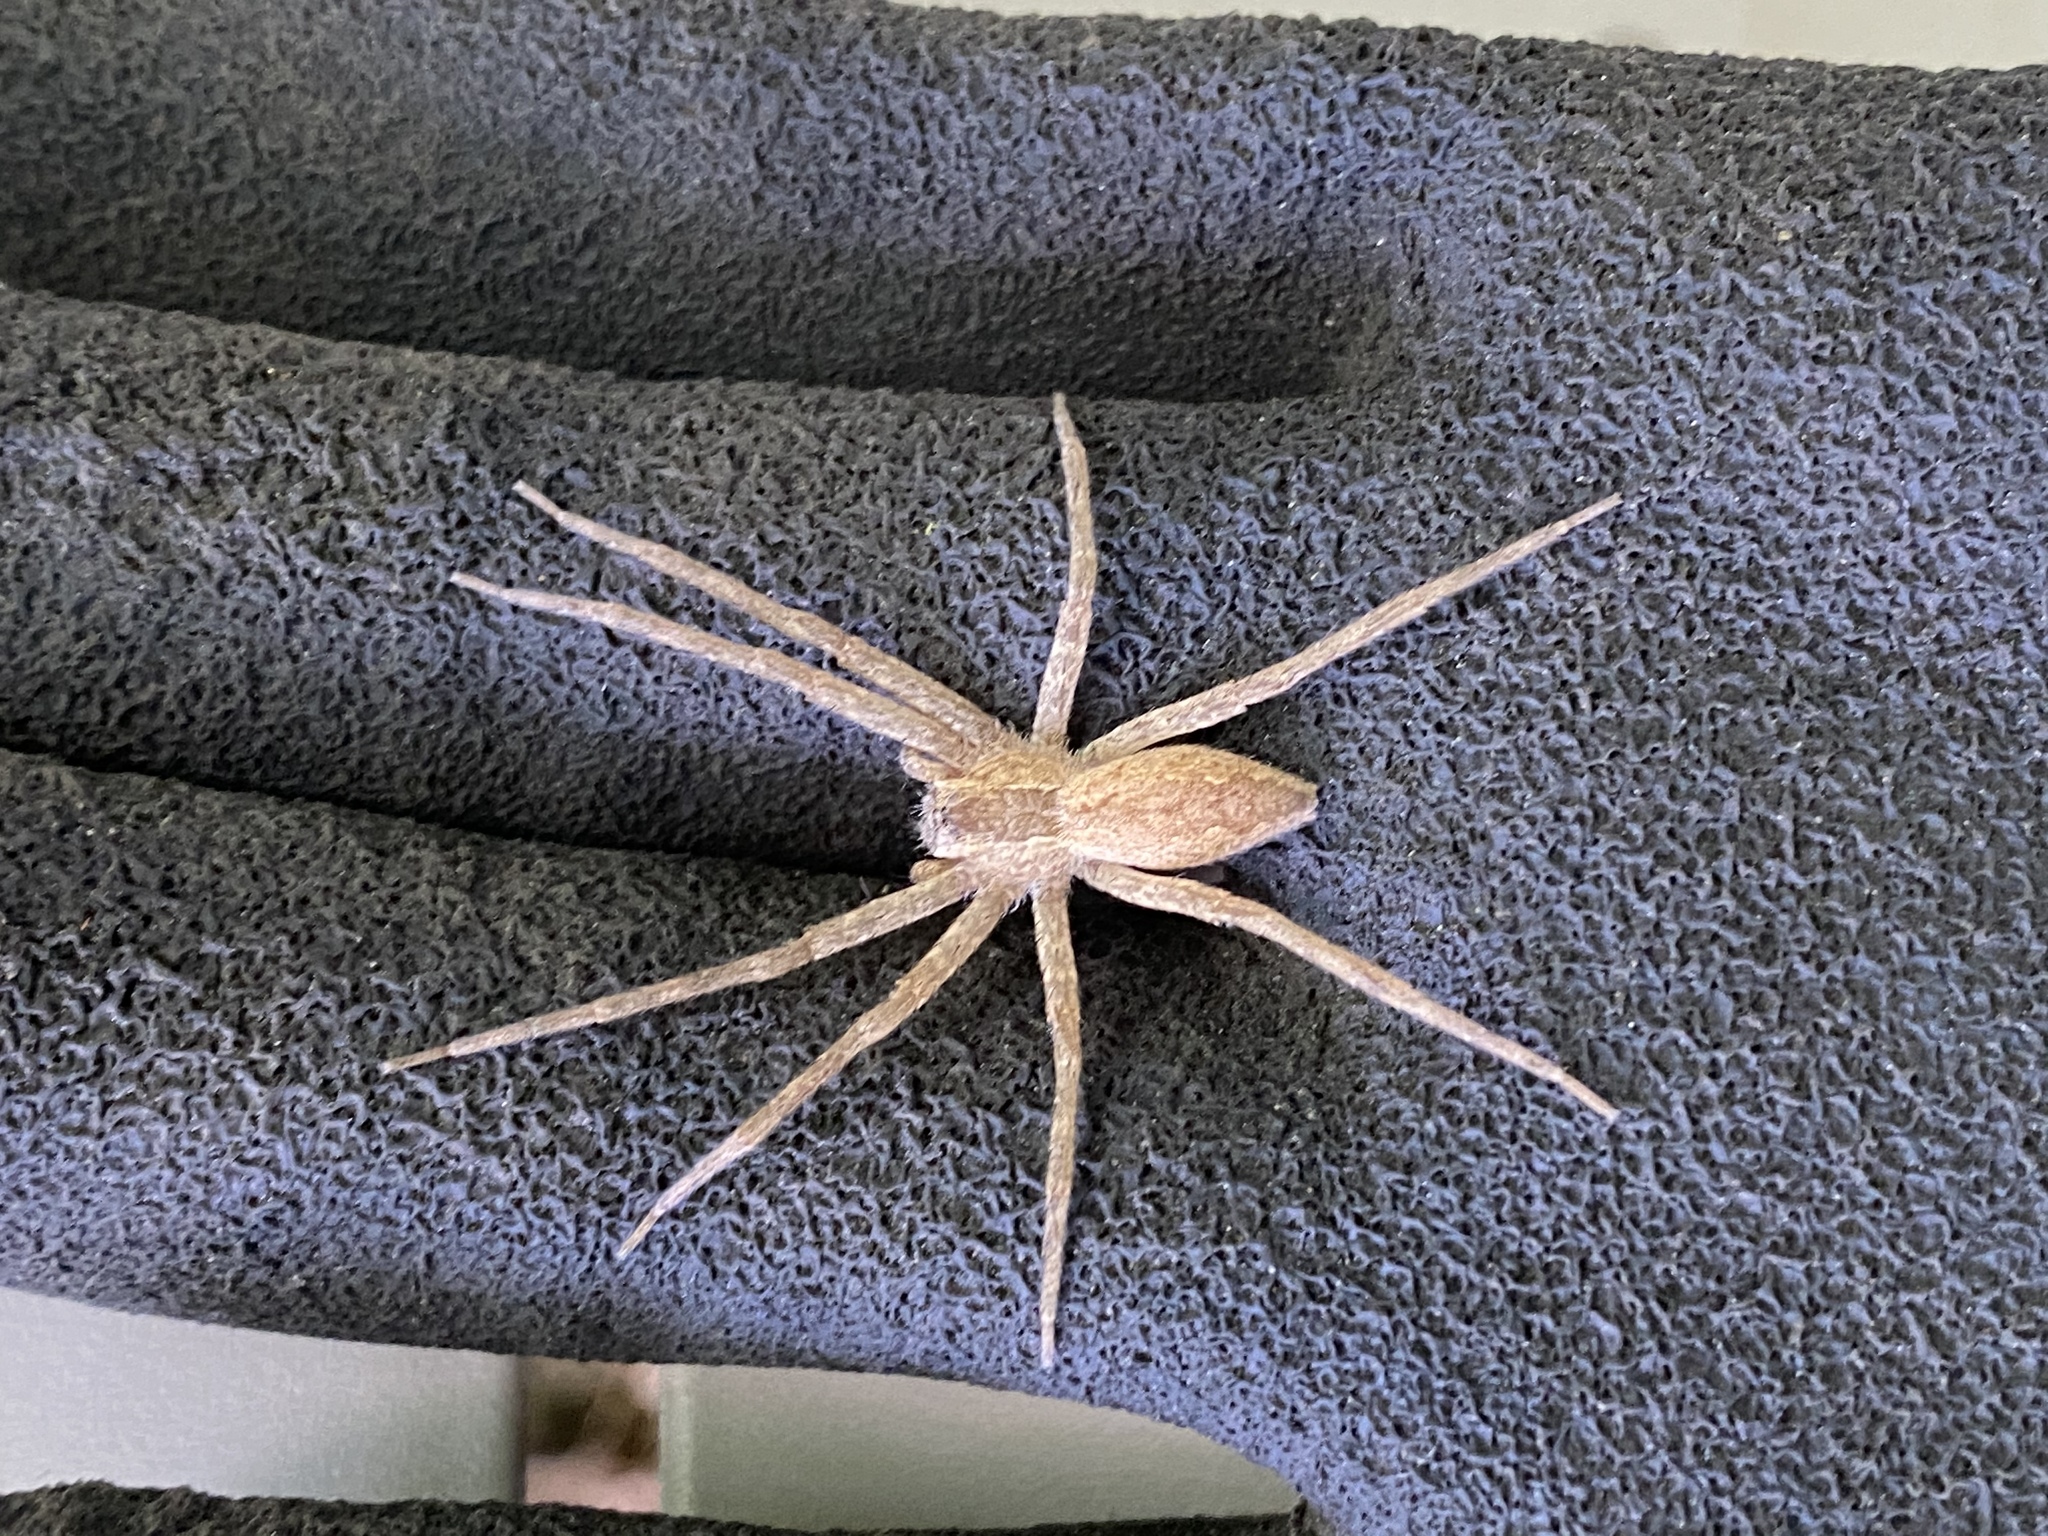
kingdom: Animalia
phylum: Arthropoda
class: Arachnida
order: Araneae
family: Pisauridae
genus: Pisaurina
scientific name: Pisaurina mira
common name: American nursery web spider
